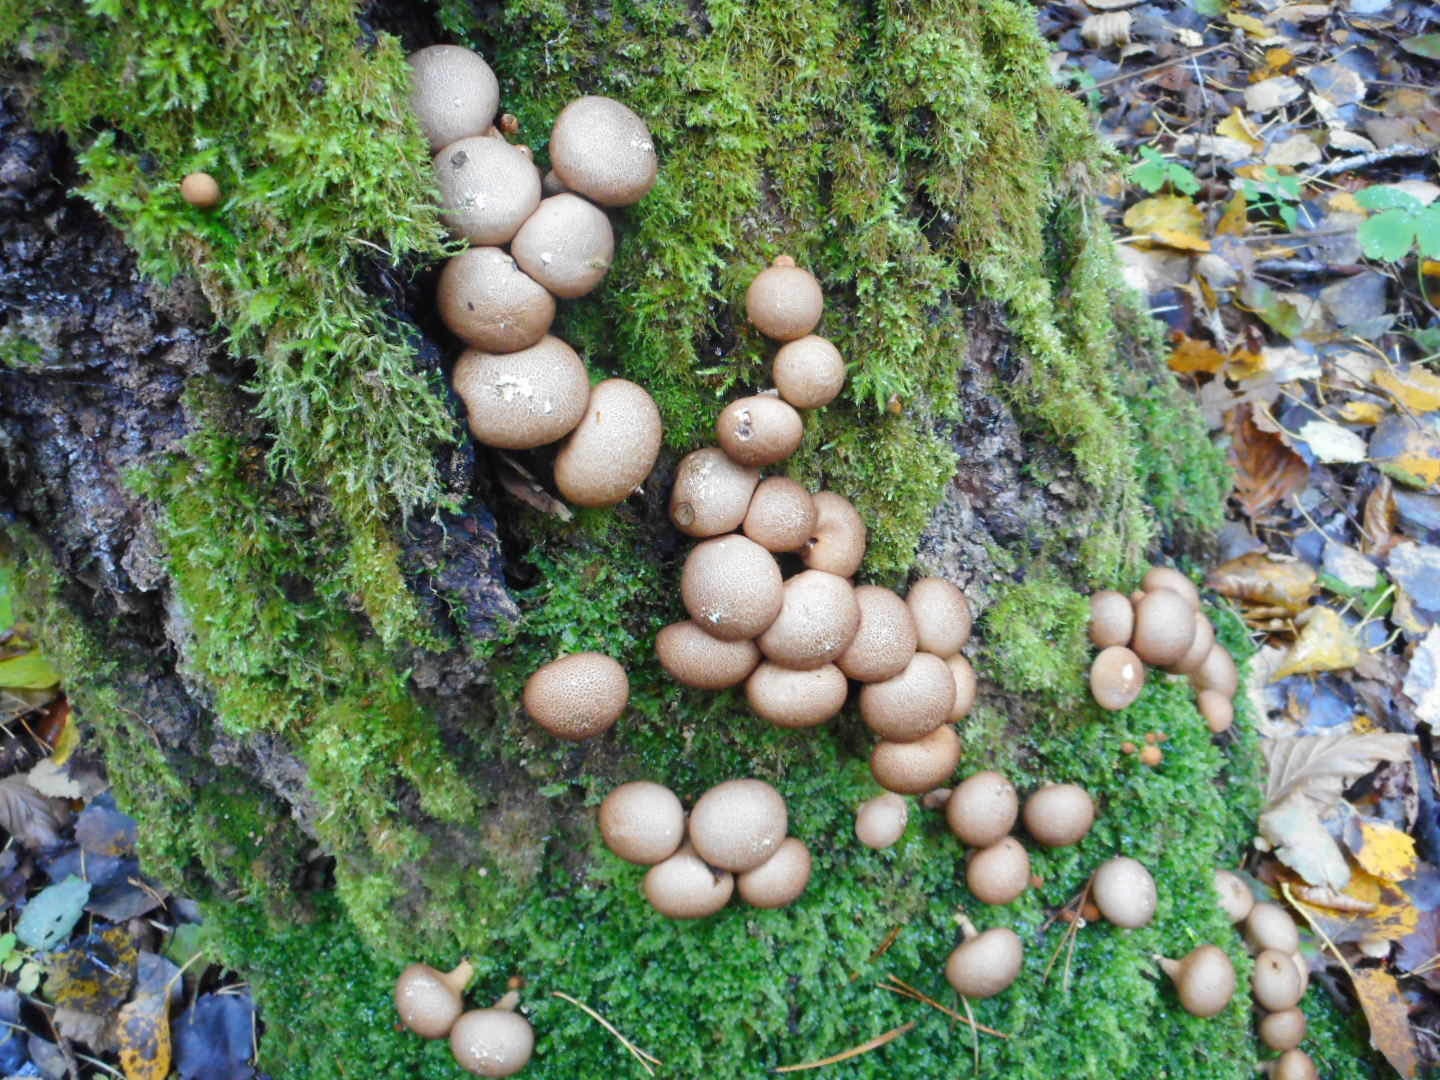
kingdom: Fungi
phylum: Basidiomycota
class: Agaricomycetes
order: Agaricales
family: Lycoperdaceae
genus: Apioperdon
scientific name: Apioperdon pyriforme
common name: Pear-shaped puffball
